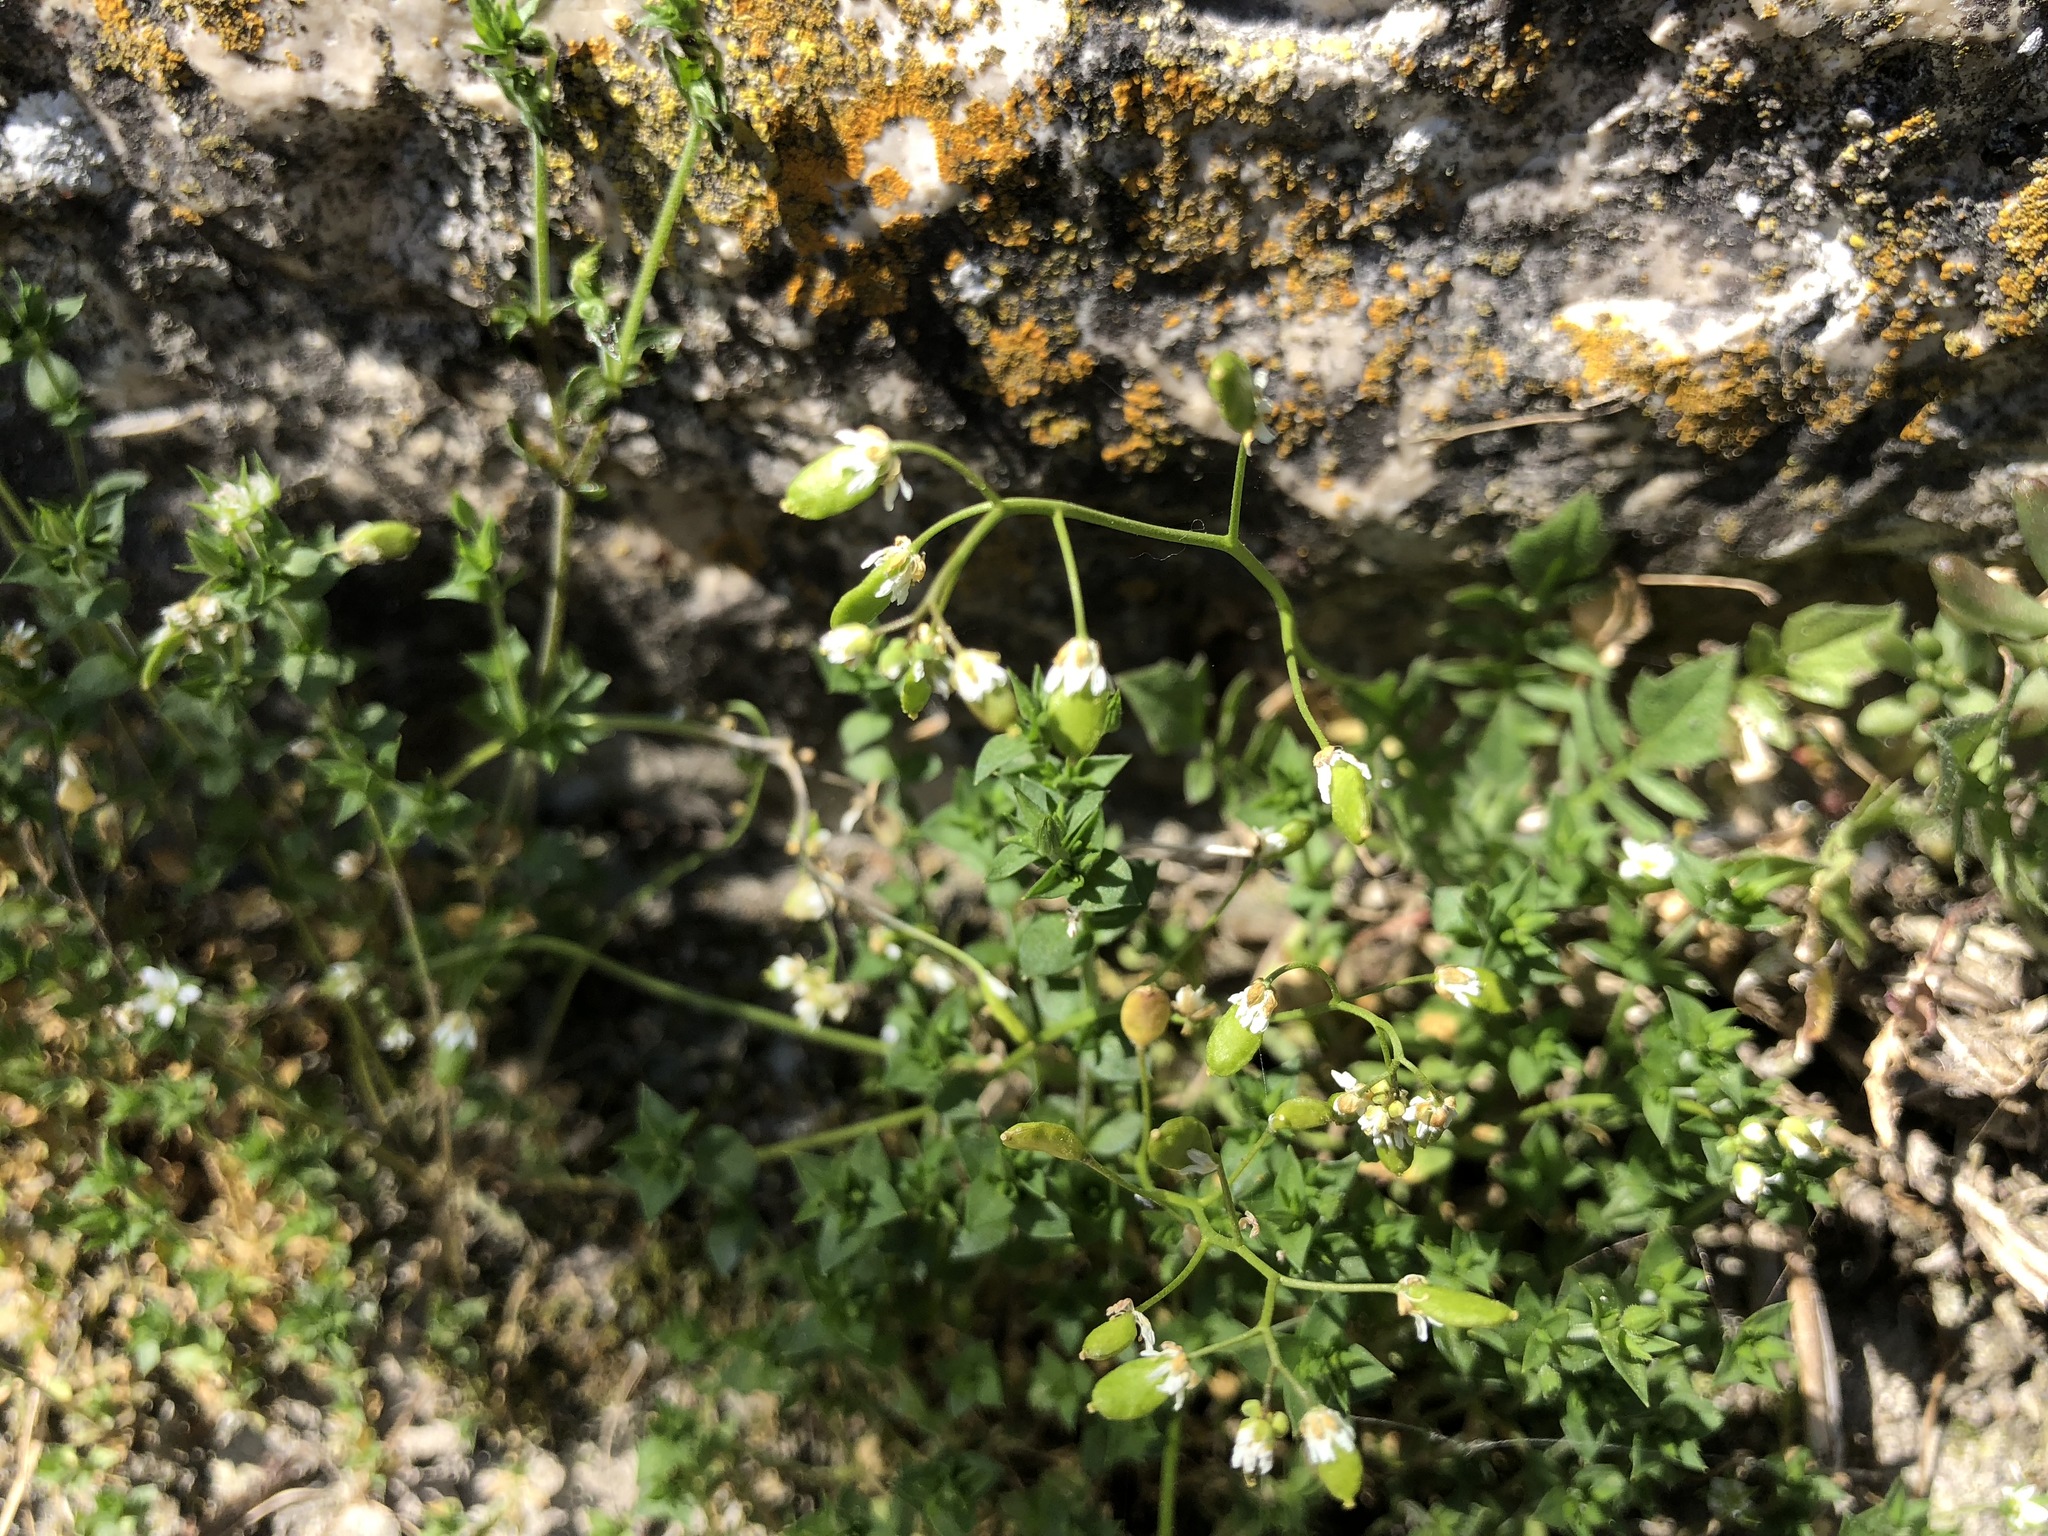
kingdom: Plantae
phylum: Tracheophyta
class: Magnoliopsida
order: Brassicales
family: Brassicaceae
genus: Draba
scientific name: Draba verna
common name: Spring draba
